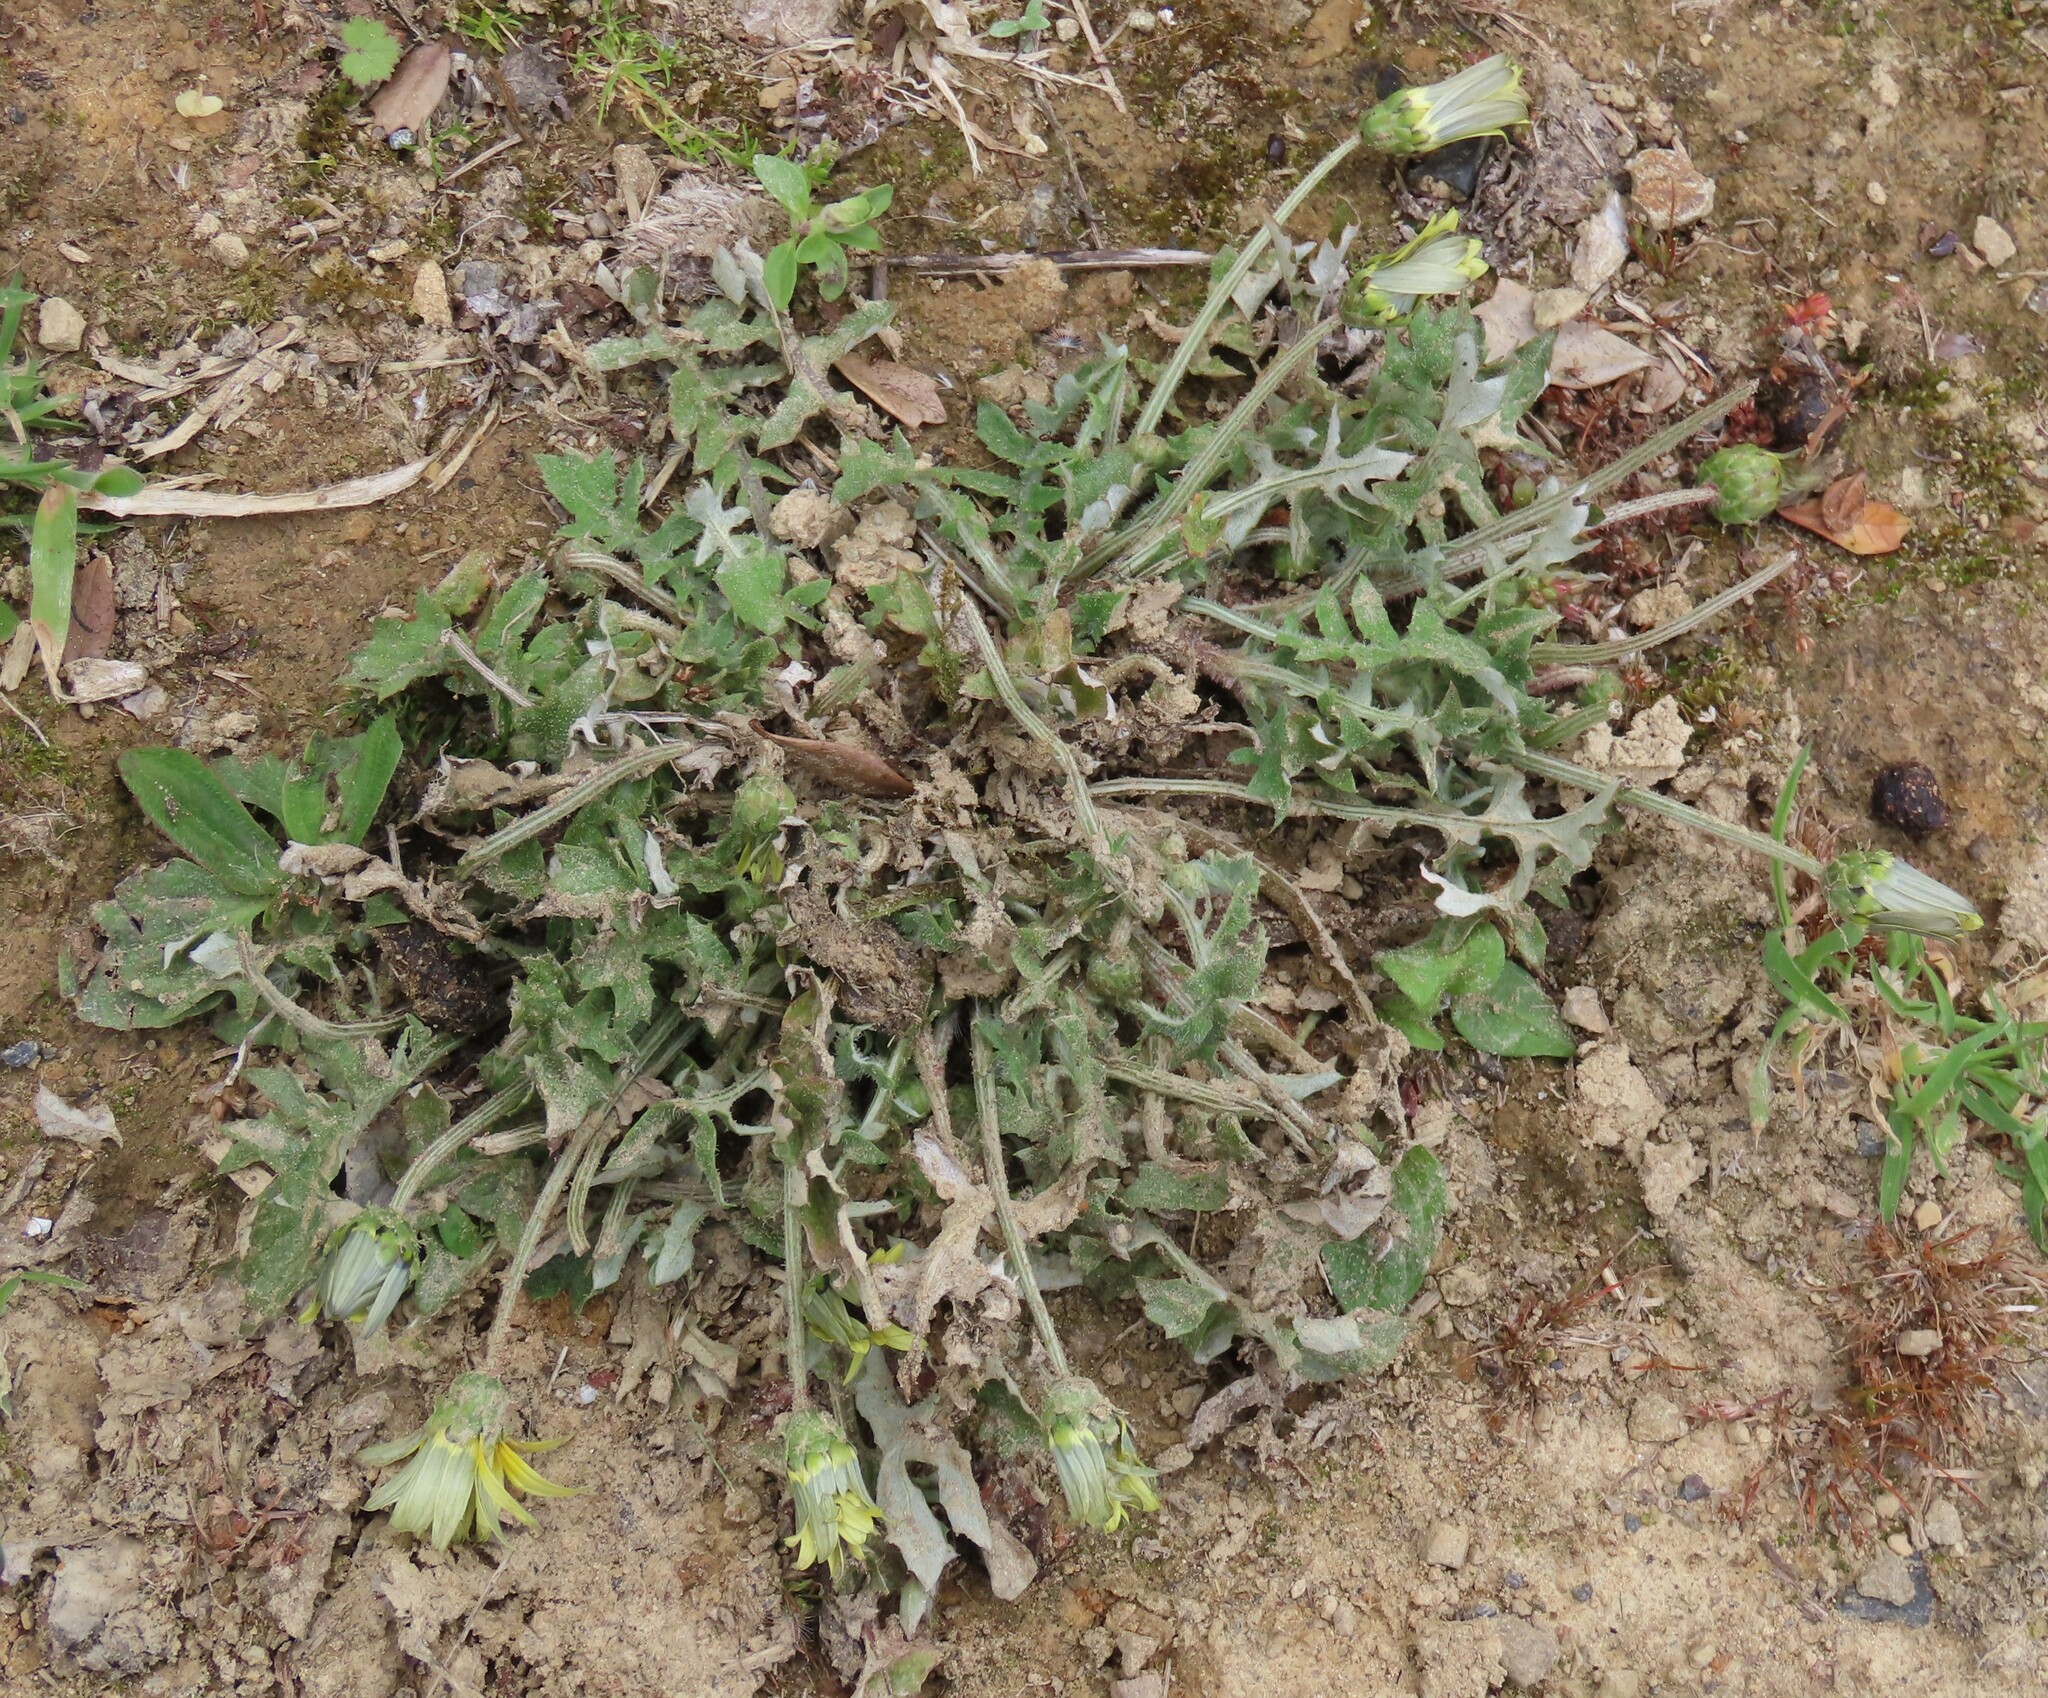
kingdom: Plantae
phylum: Tracheophyta
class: Magnoliopsida
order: Asterales
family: Asteraceae
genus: Arctotheca
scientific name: Arctotheca calendula
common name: Capeweed
